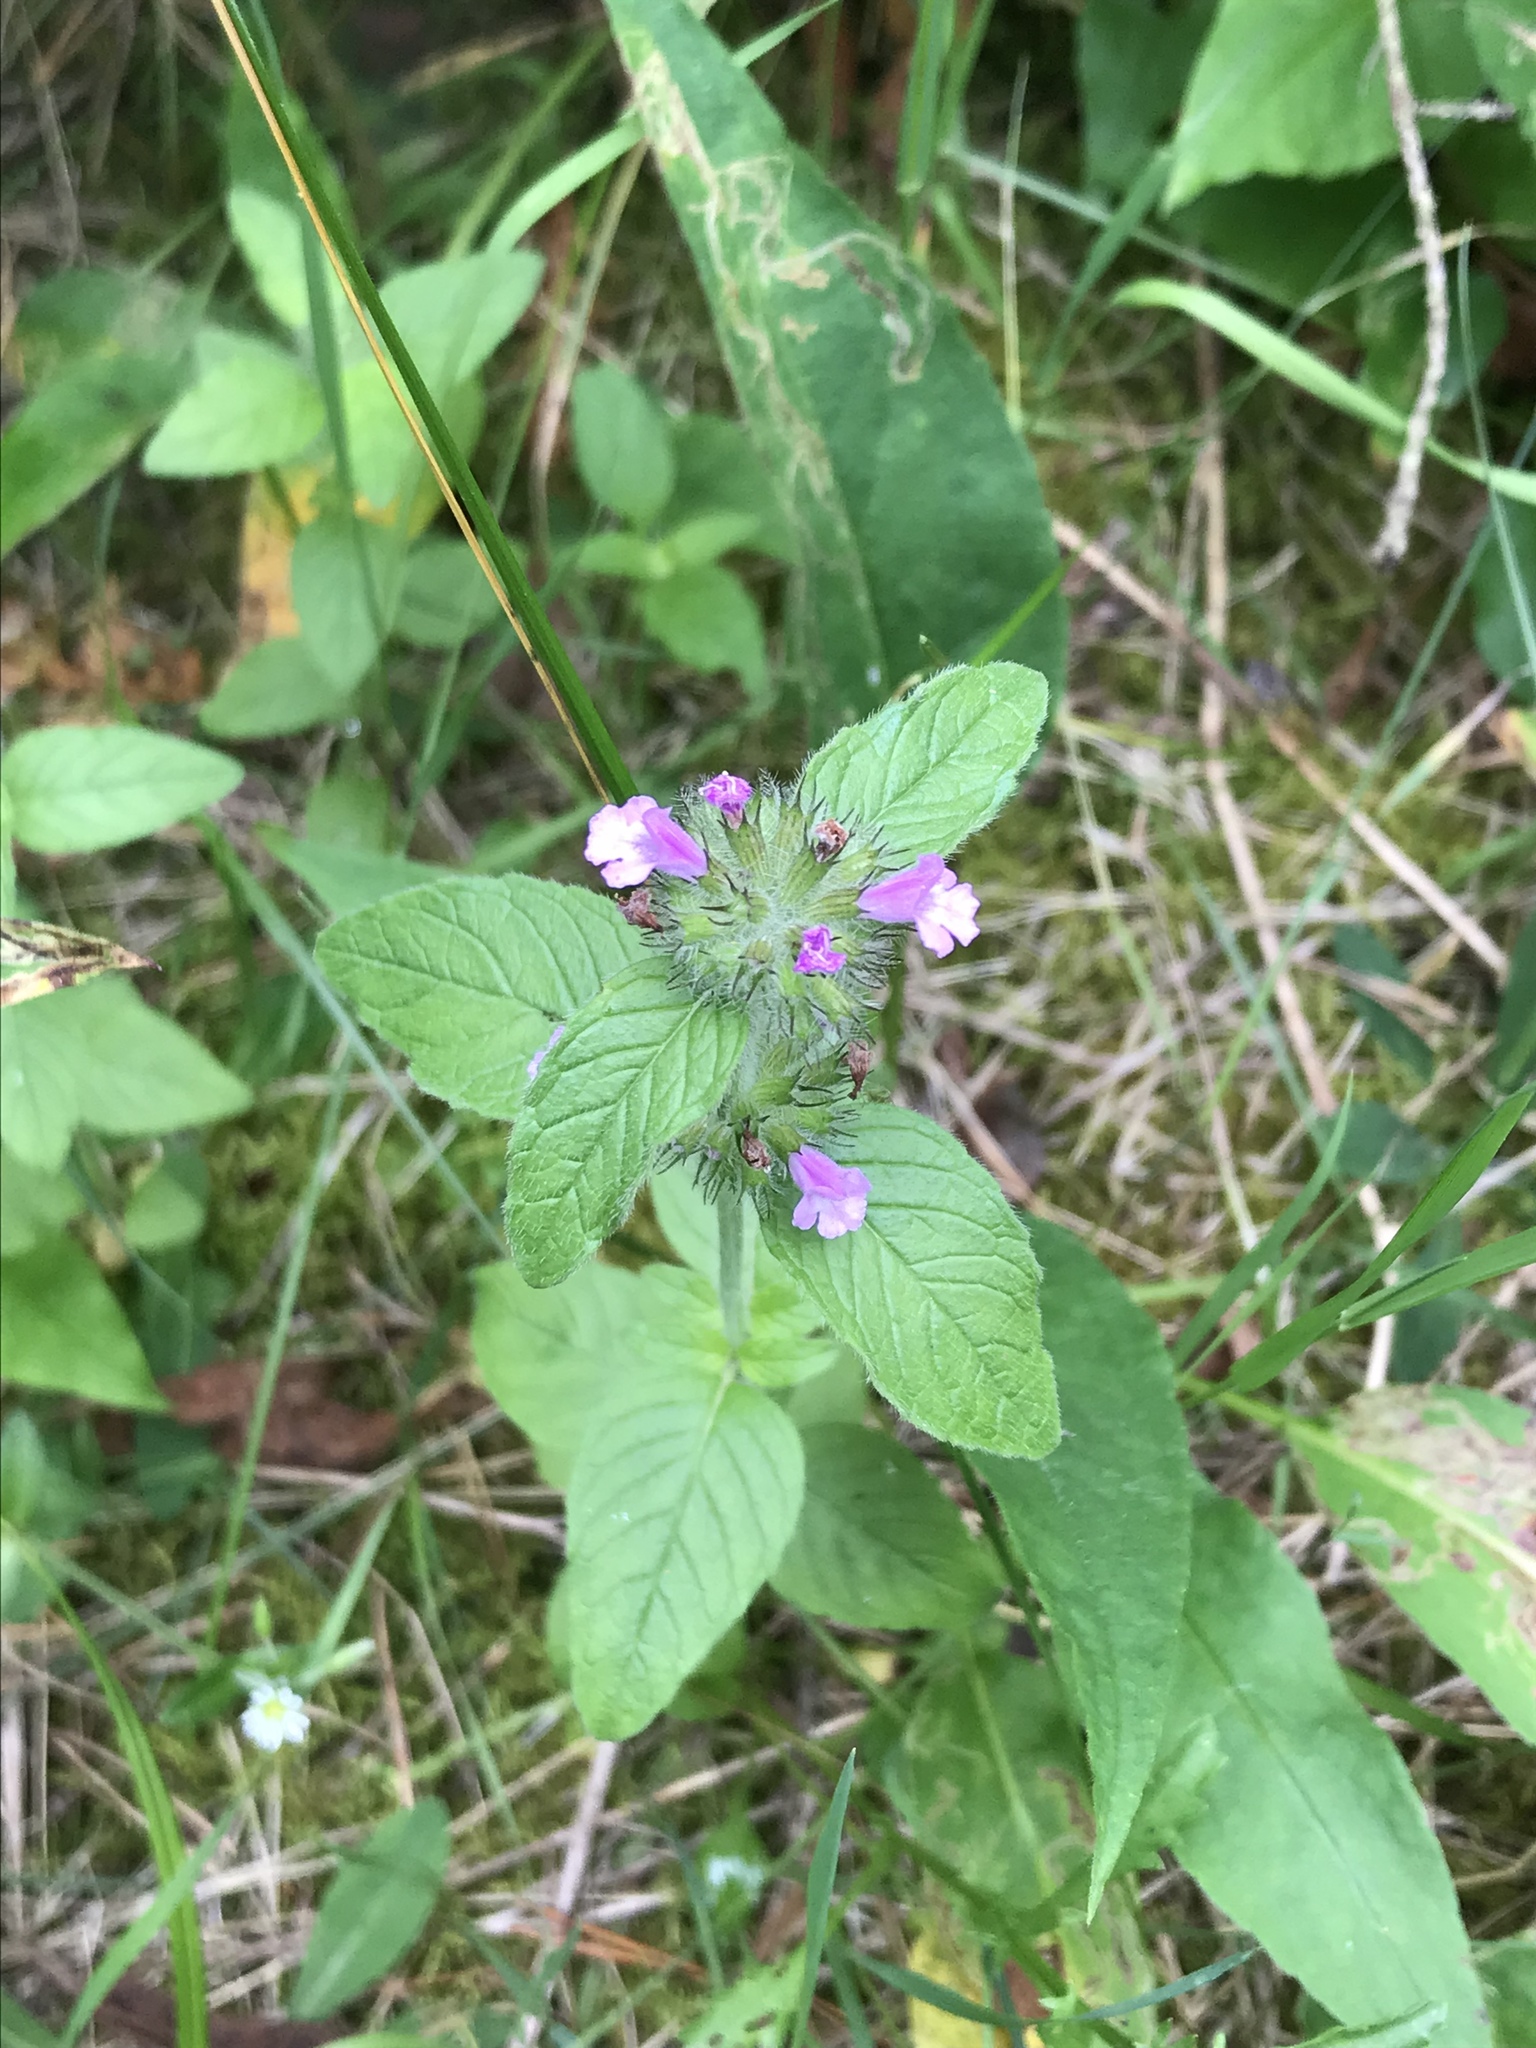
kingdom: Plantae
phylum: Tracheophyta
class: Magnoliopsida
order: Lamiales
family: Lamiaceae
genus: Clinopodium
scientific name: Clinopodium vulgare
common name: Wild basil
